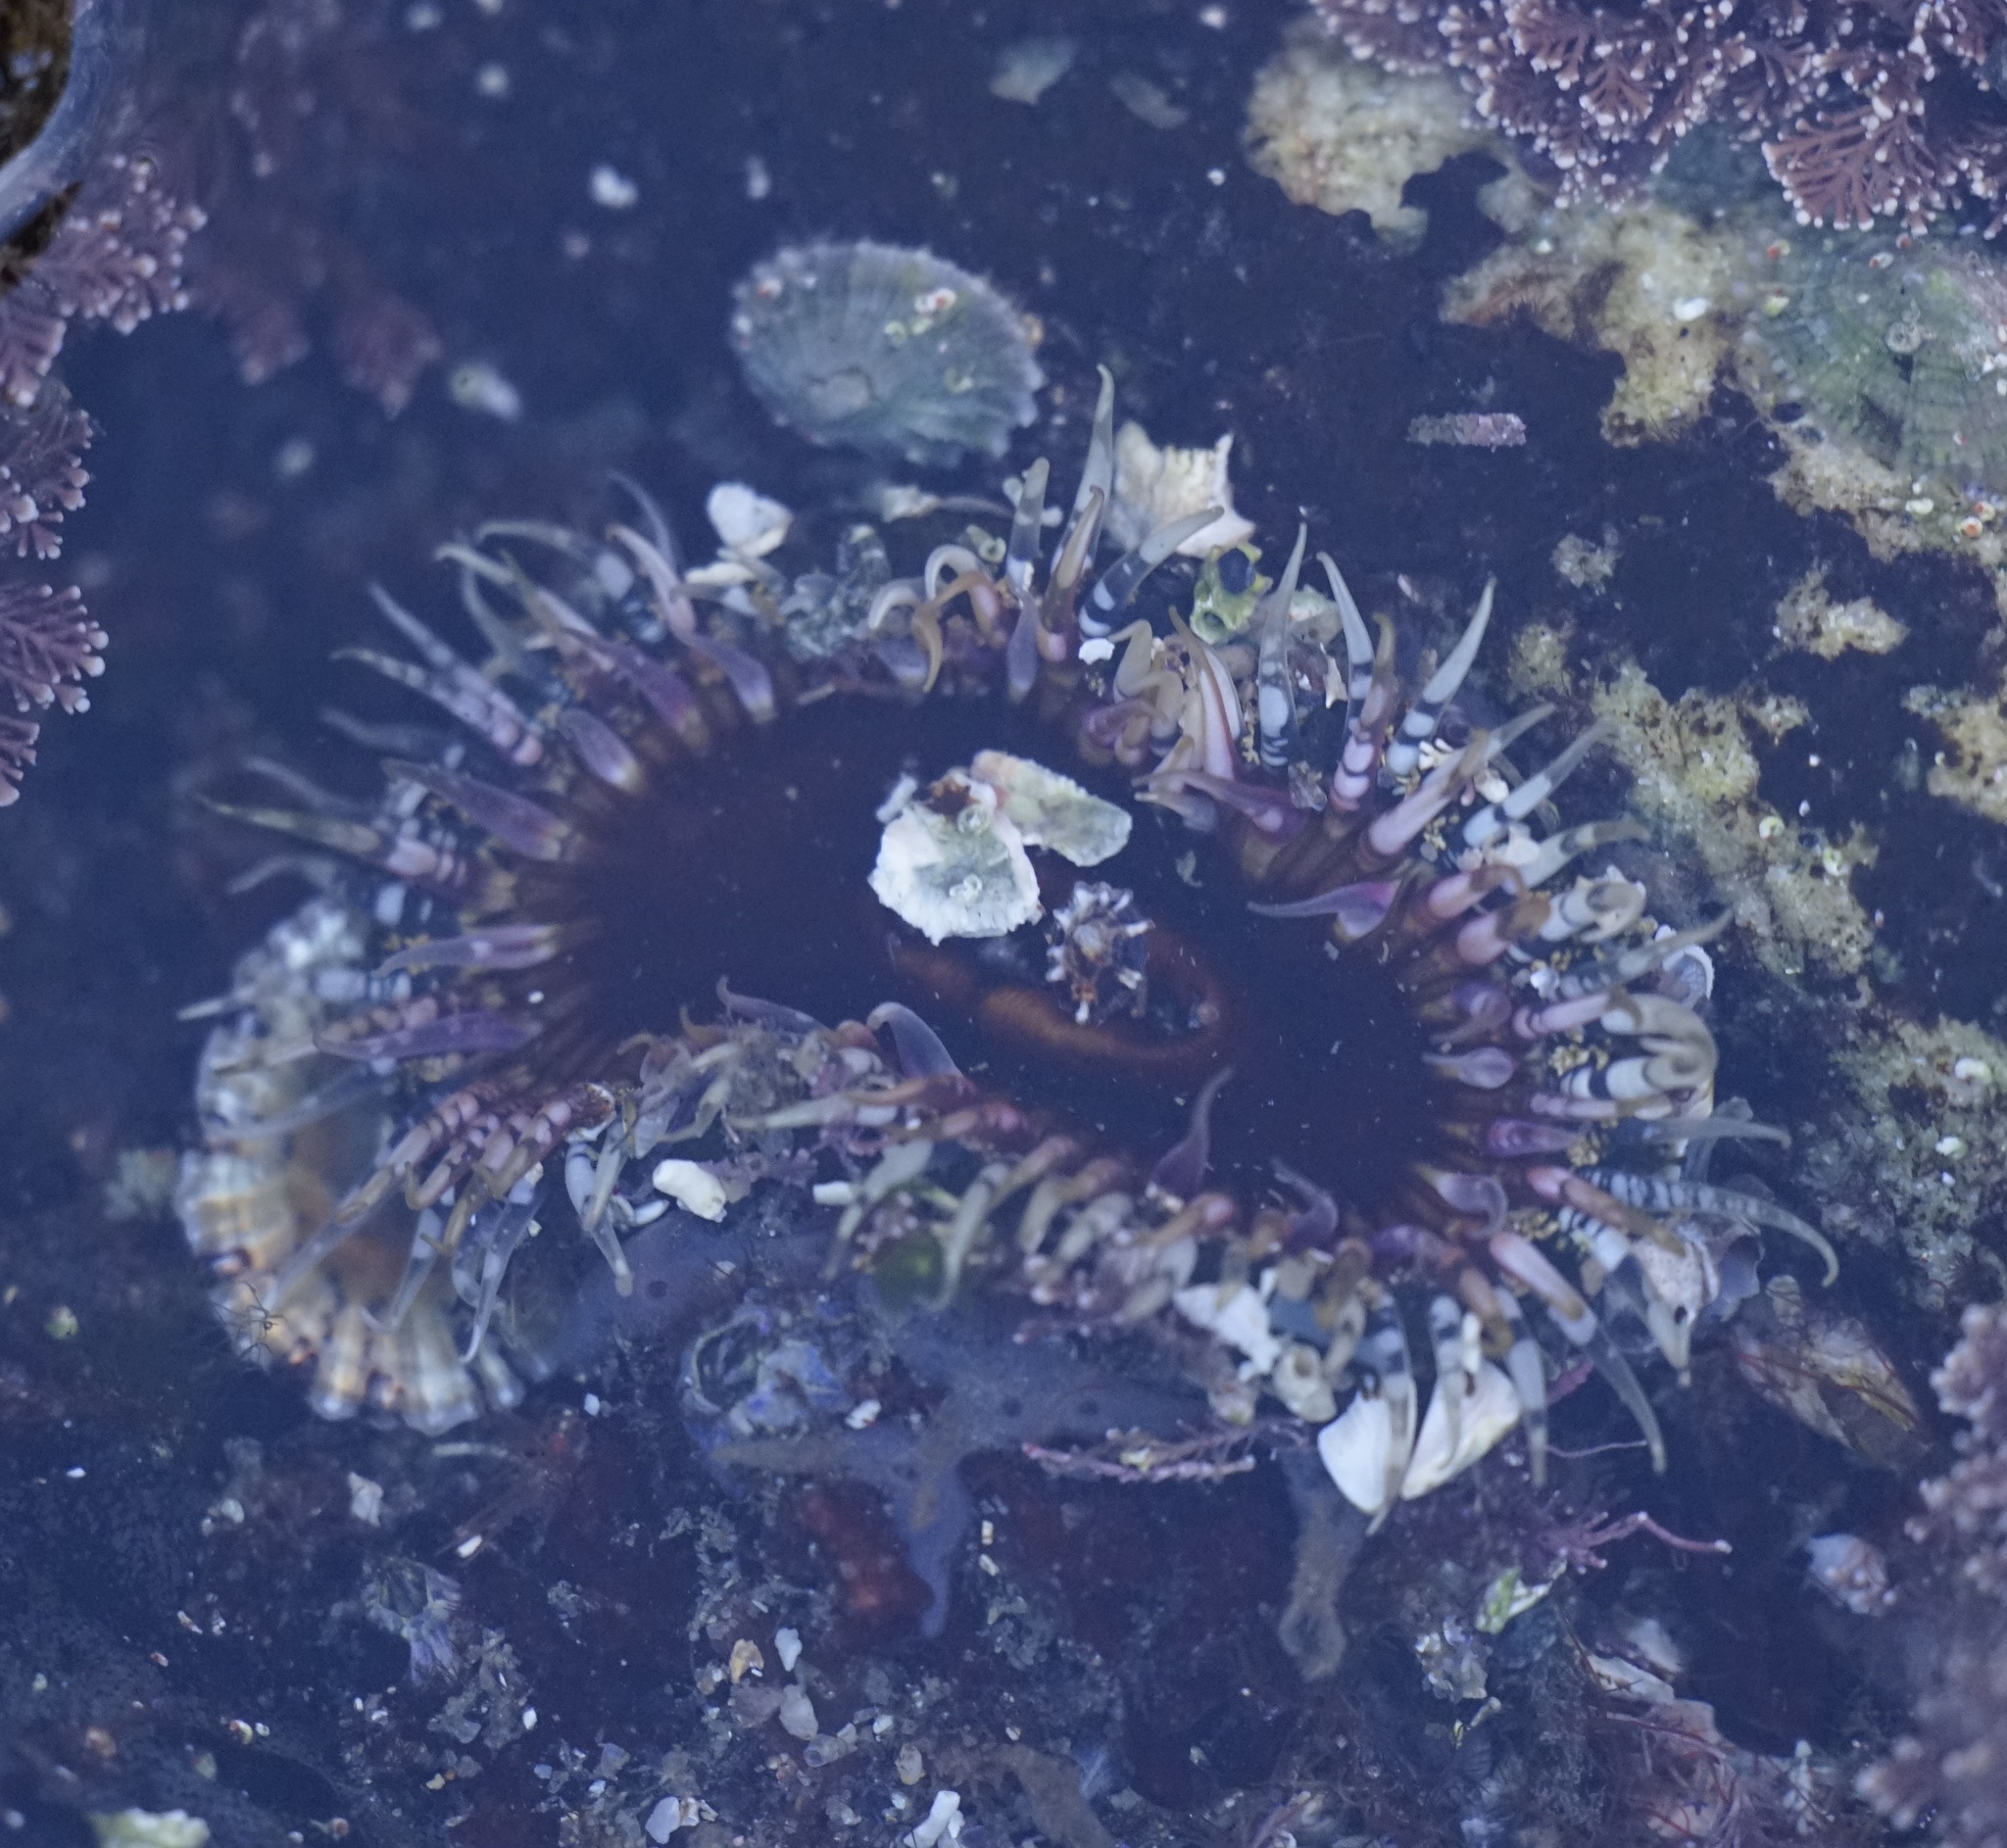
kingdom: Animalia
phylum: Cnidaria
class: Anthozoa
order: Actiniaria
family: Actiniidae
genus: Oulactis
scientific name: Oulactis muscosa
